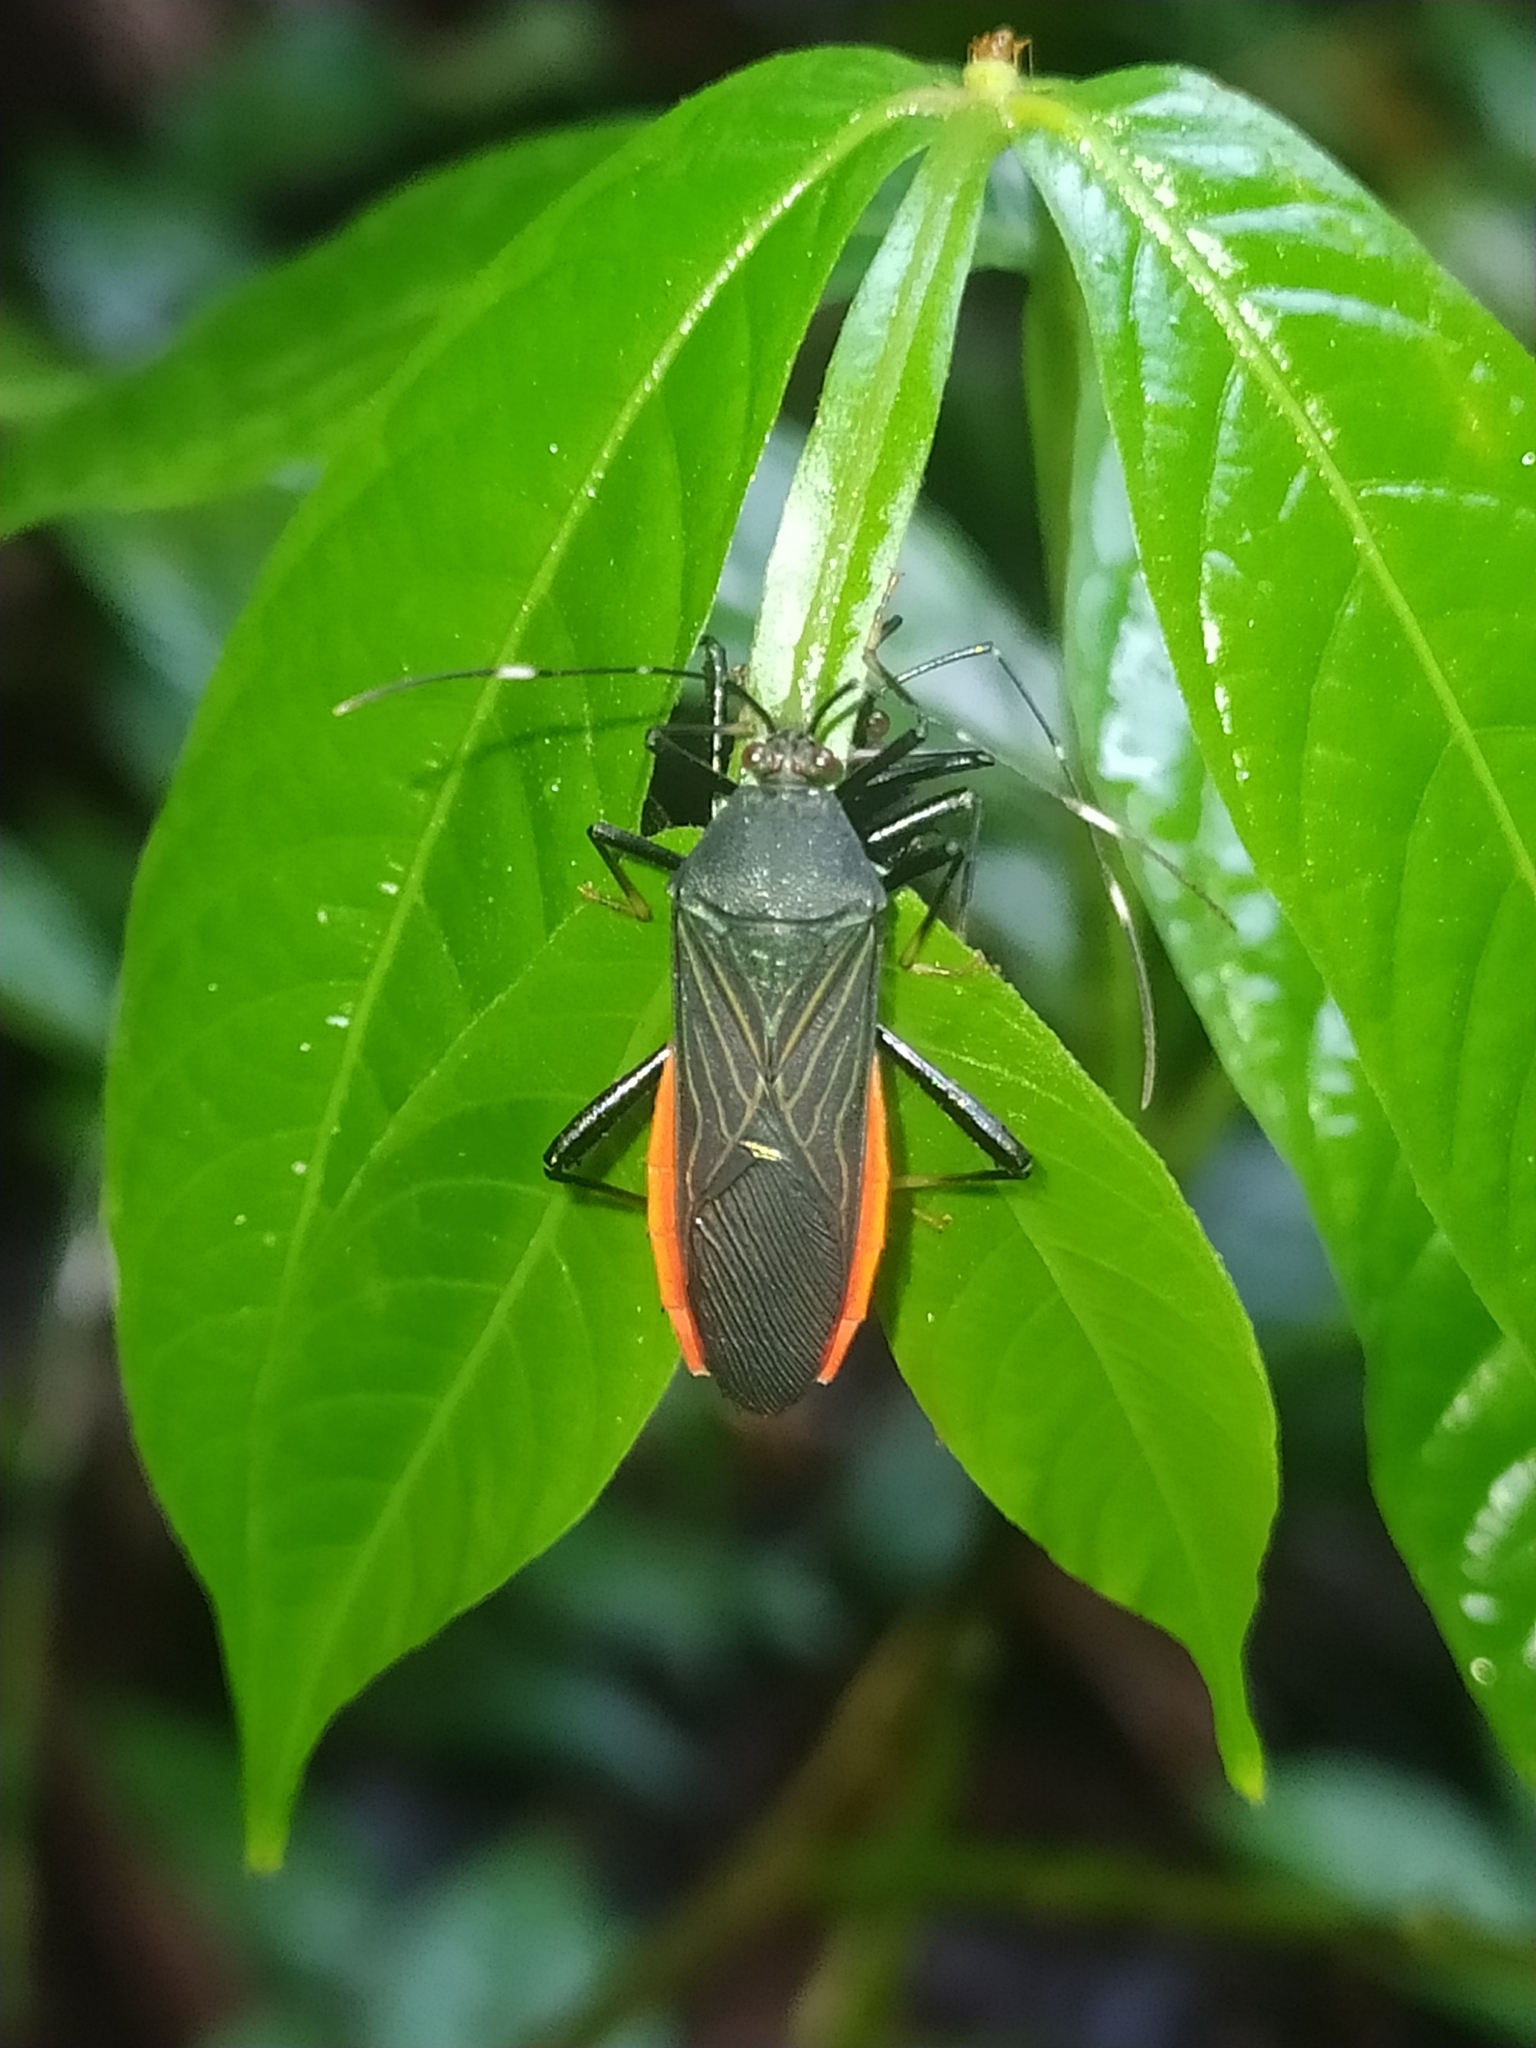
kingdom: Animalia
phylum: Arthropoda
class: Insecta
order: Hemiptera
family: Coreidae
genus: Nematopus
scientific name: Nematopus indus
